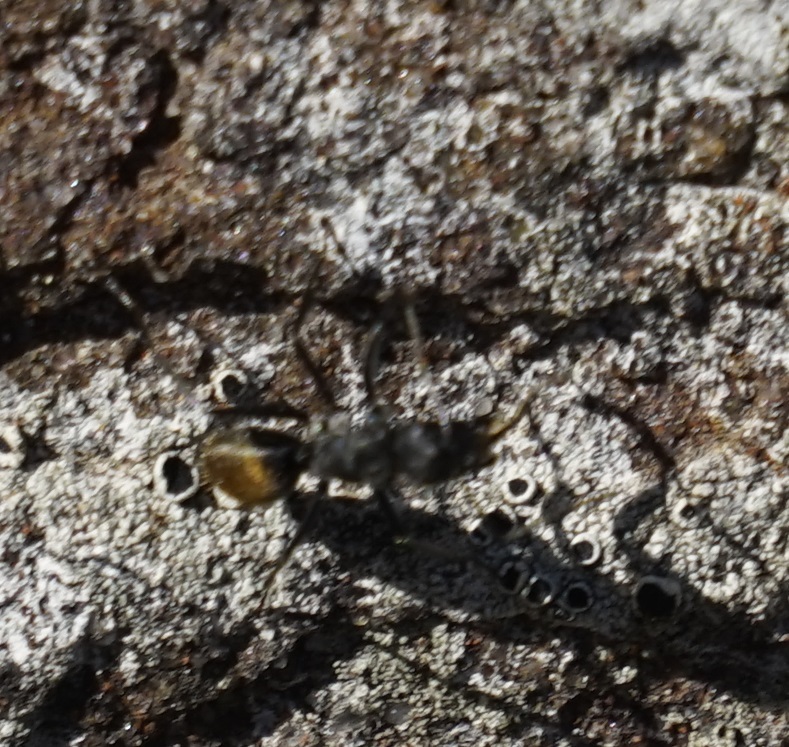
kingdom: Animalia
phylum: Arthropoda
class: Insecta
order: Hymenoptera
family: Formicidae
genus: Camponotus
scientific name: Camponotus aeneopilosus
